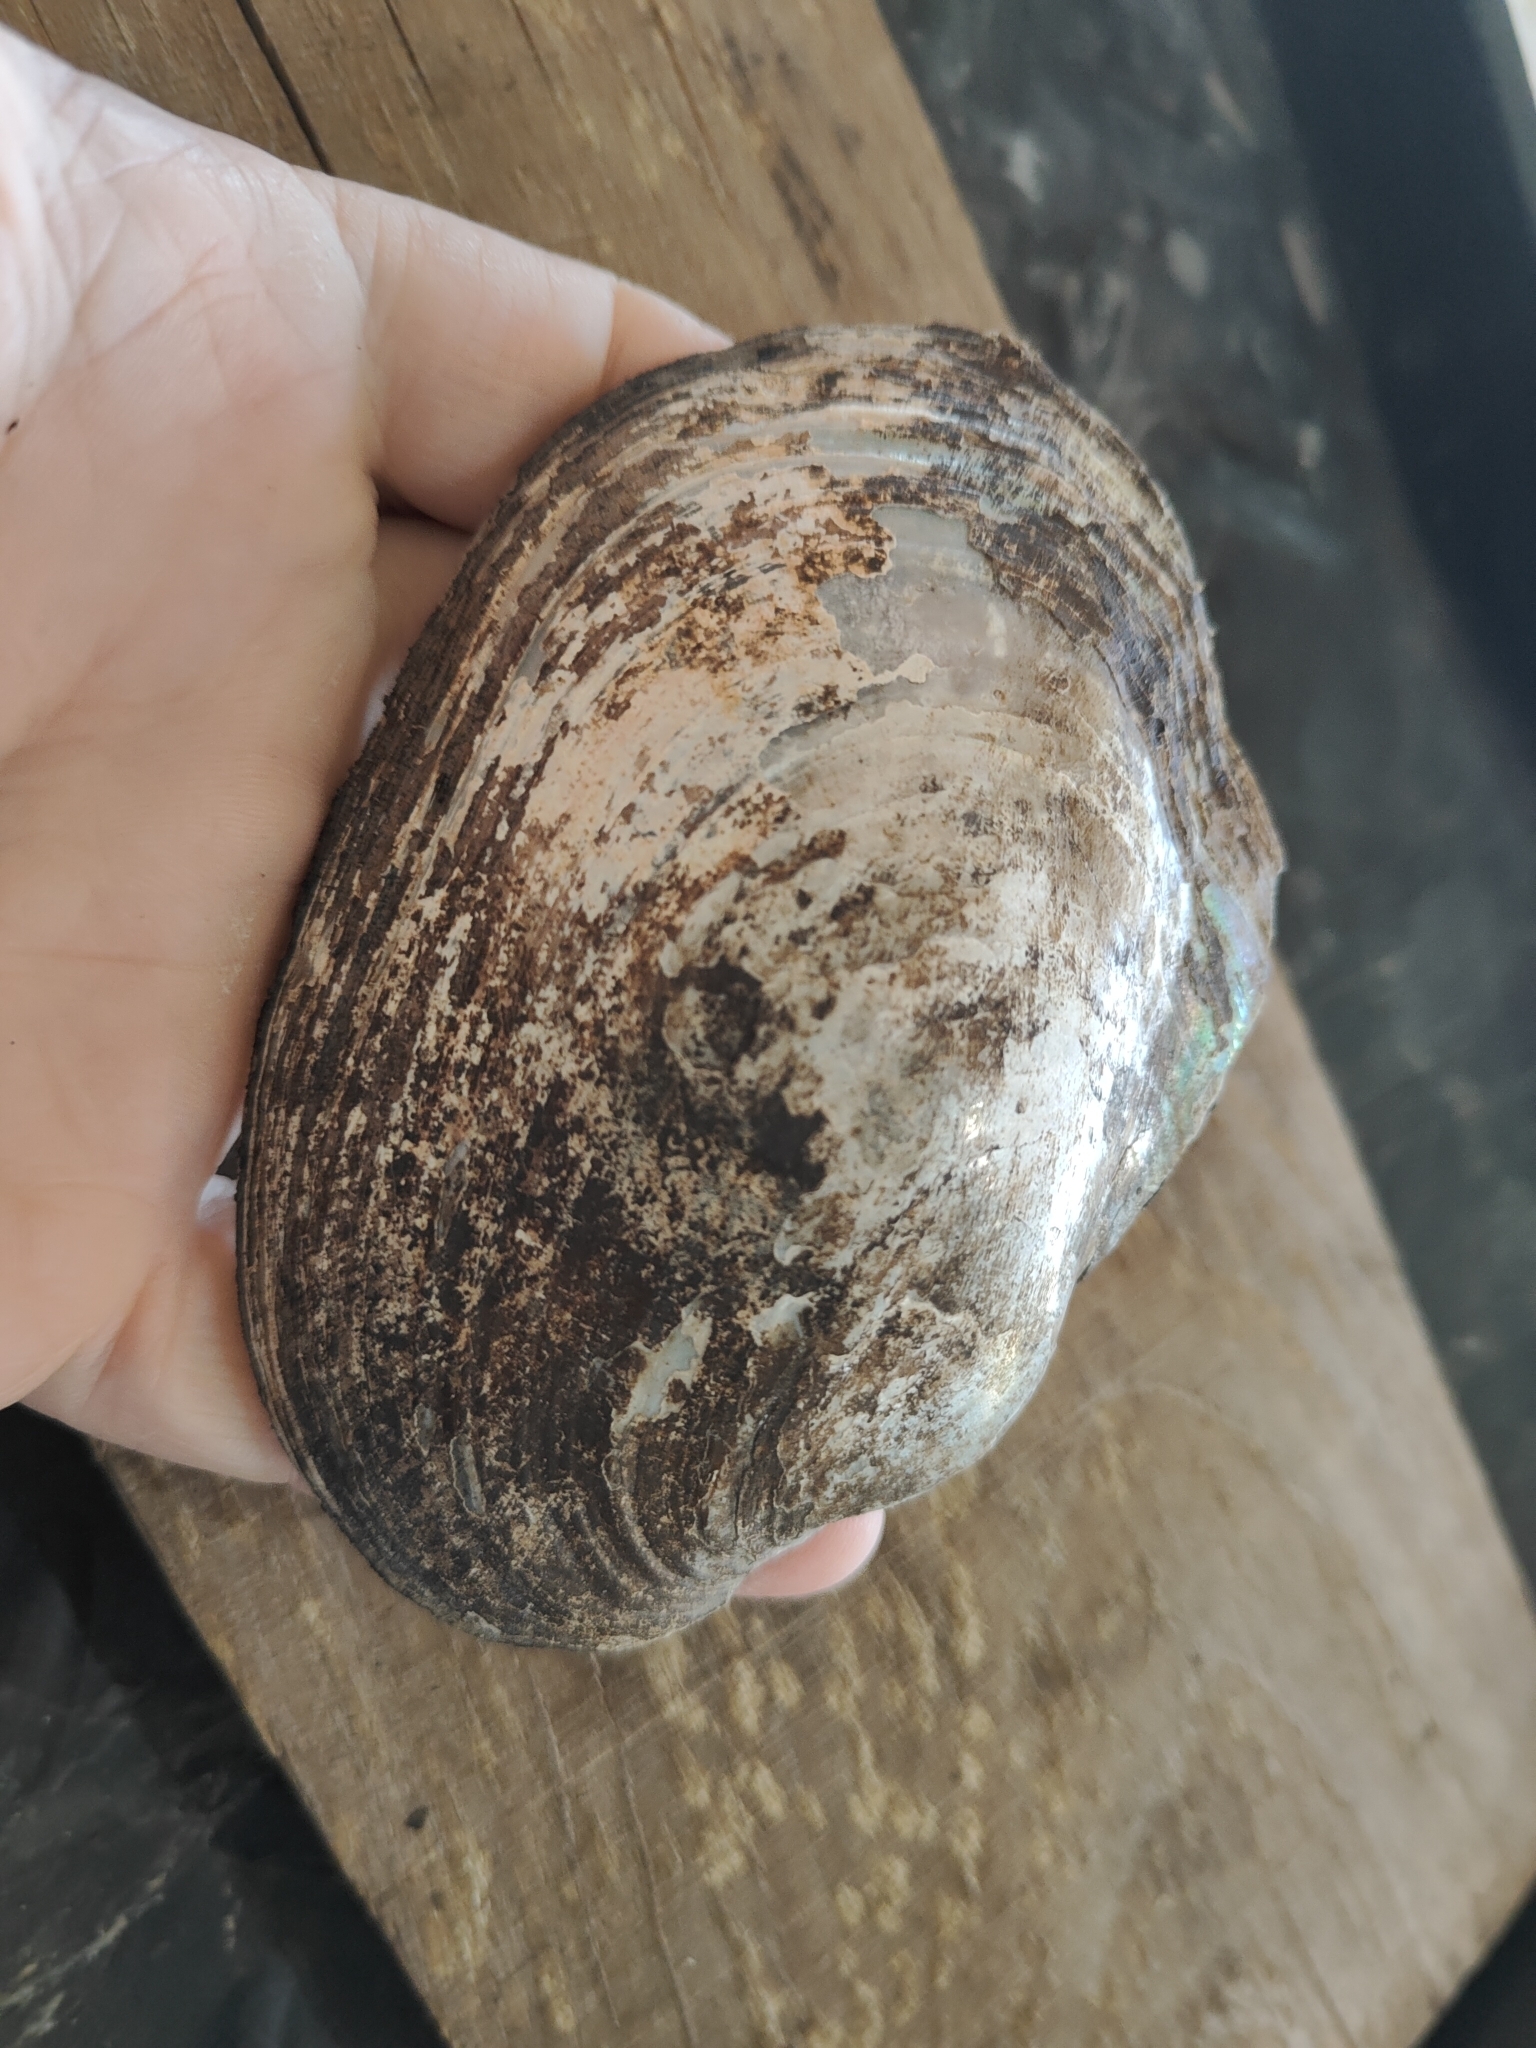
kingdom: Animalia
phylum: Mollusca
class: Bivalvia
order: Unionida
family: Unionidae
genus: Potamilus
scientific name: Potamilus alatus
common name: Pink heelsplitter
